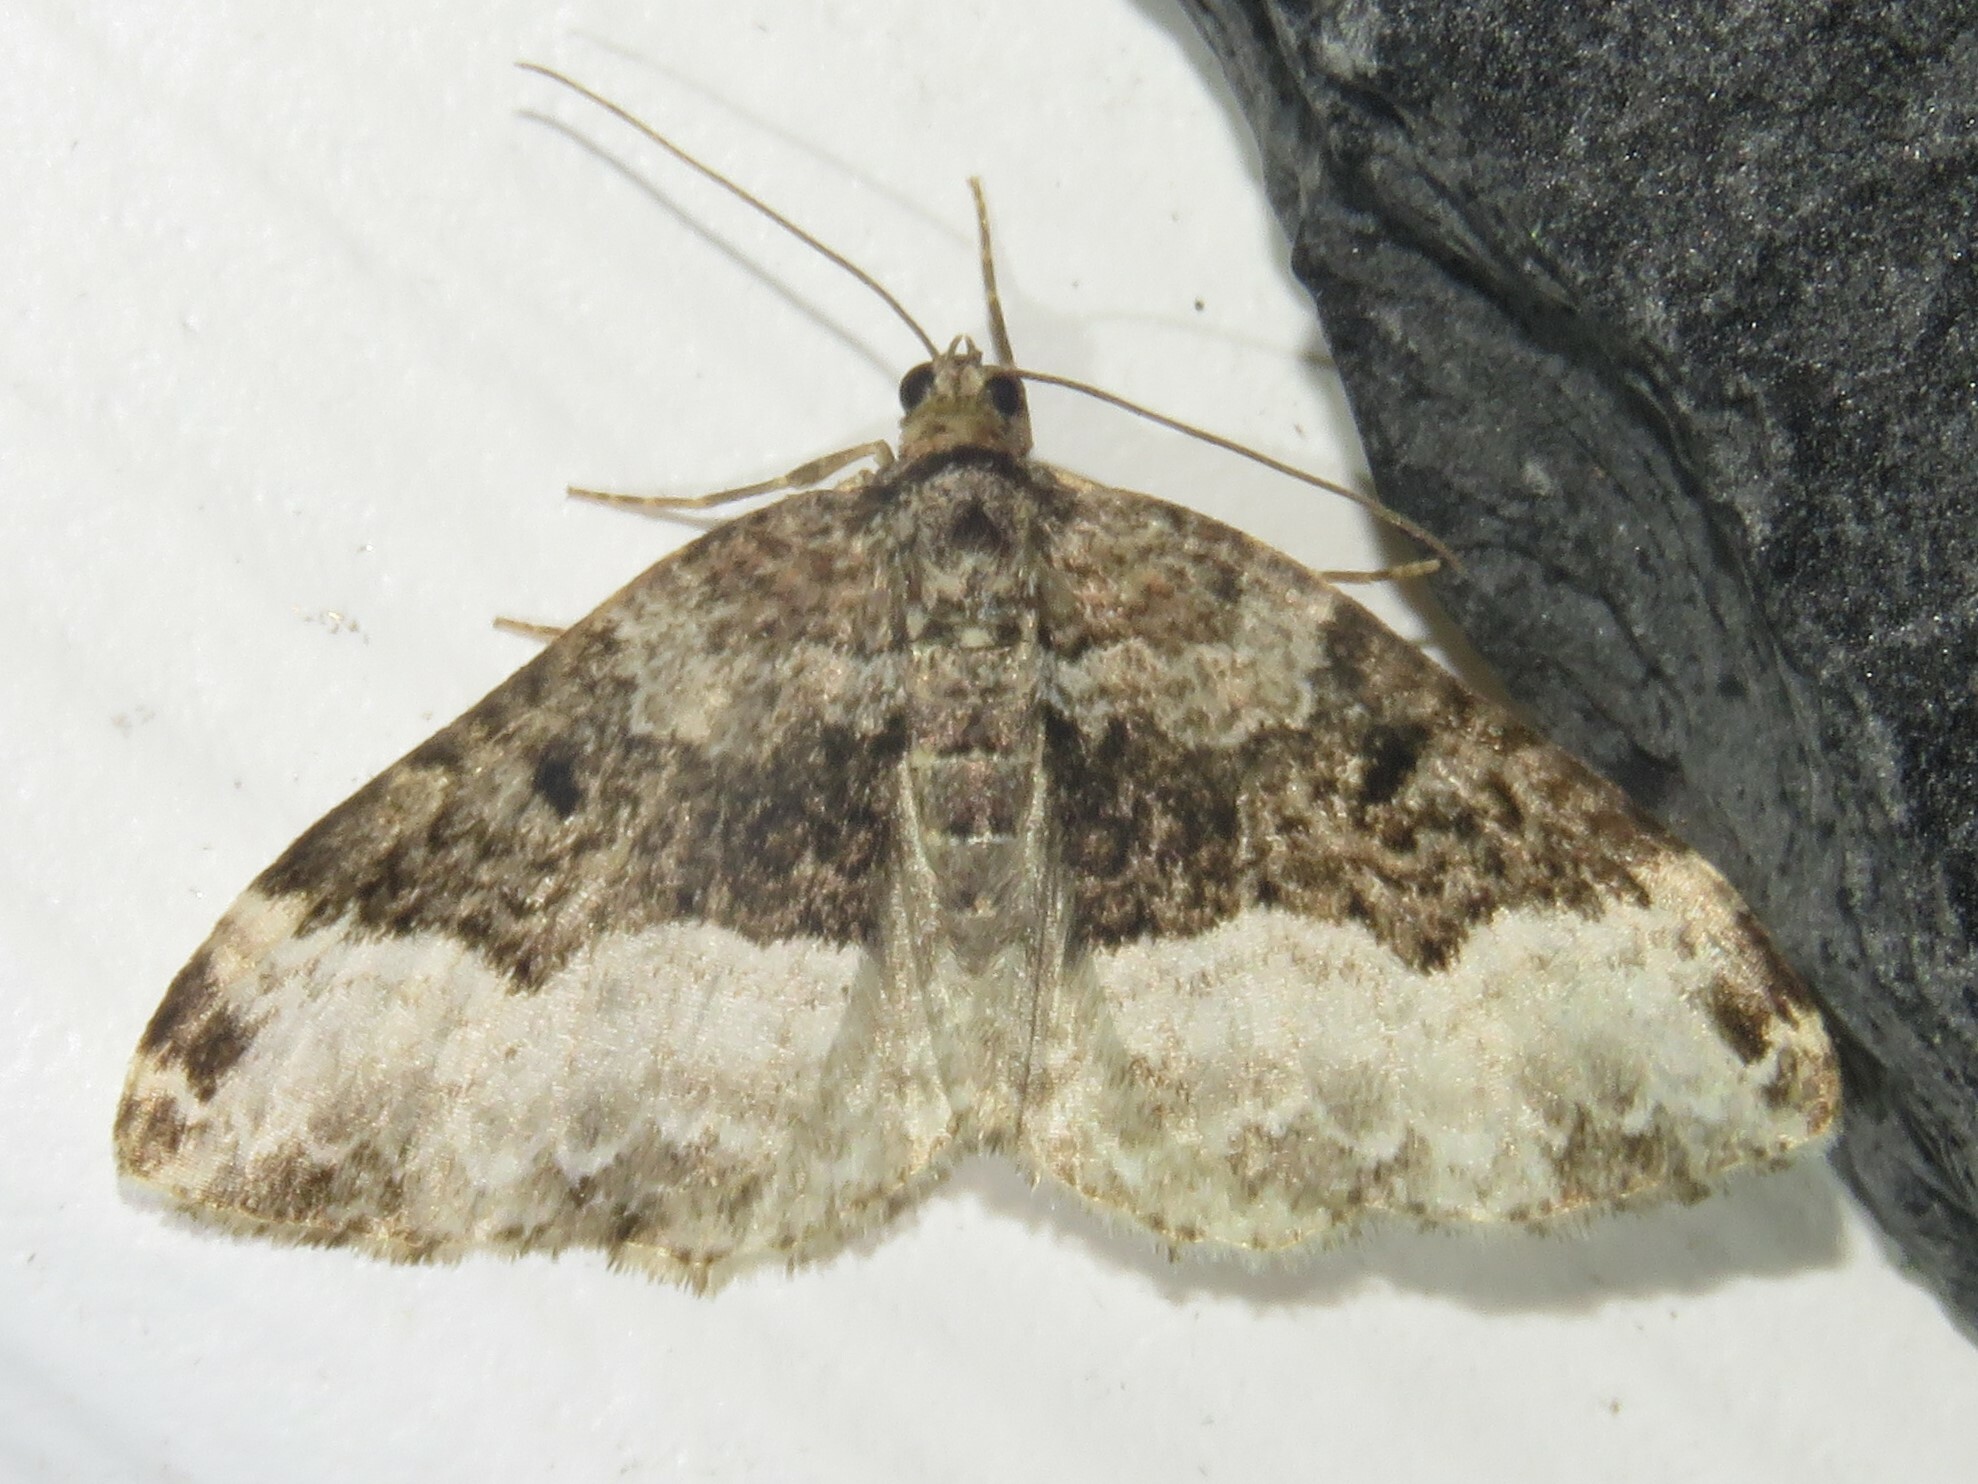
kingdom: Animalia
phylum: Arthropoda
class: Insecta
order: Lepidoptera
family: Geometridae
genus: Euphyia
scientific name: Euphyia intermediata
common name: Sharp-angled carpet
